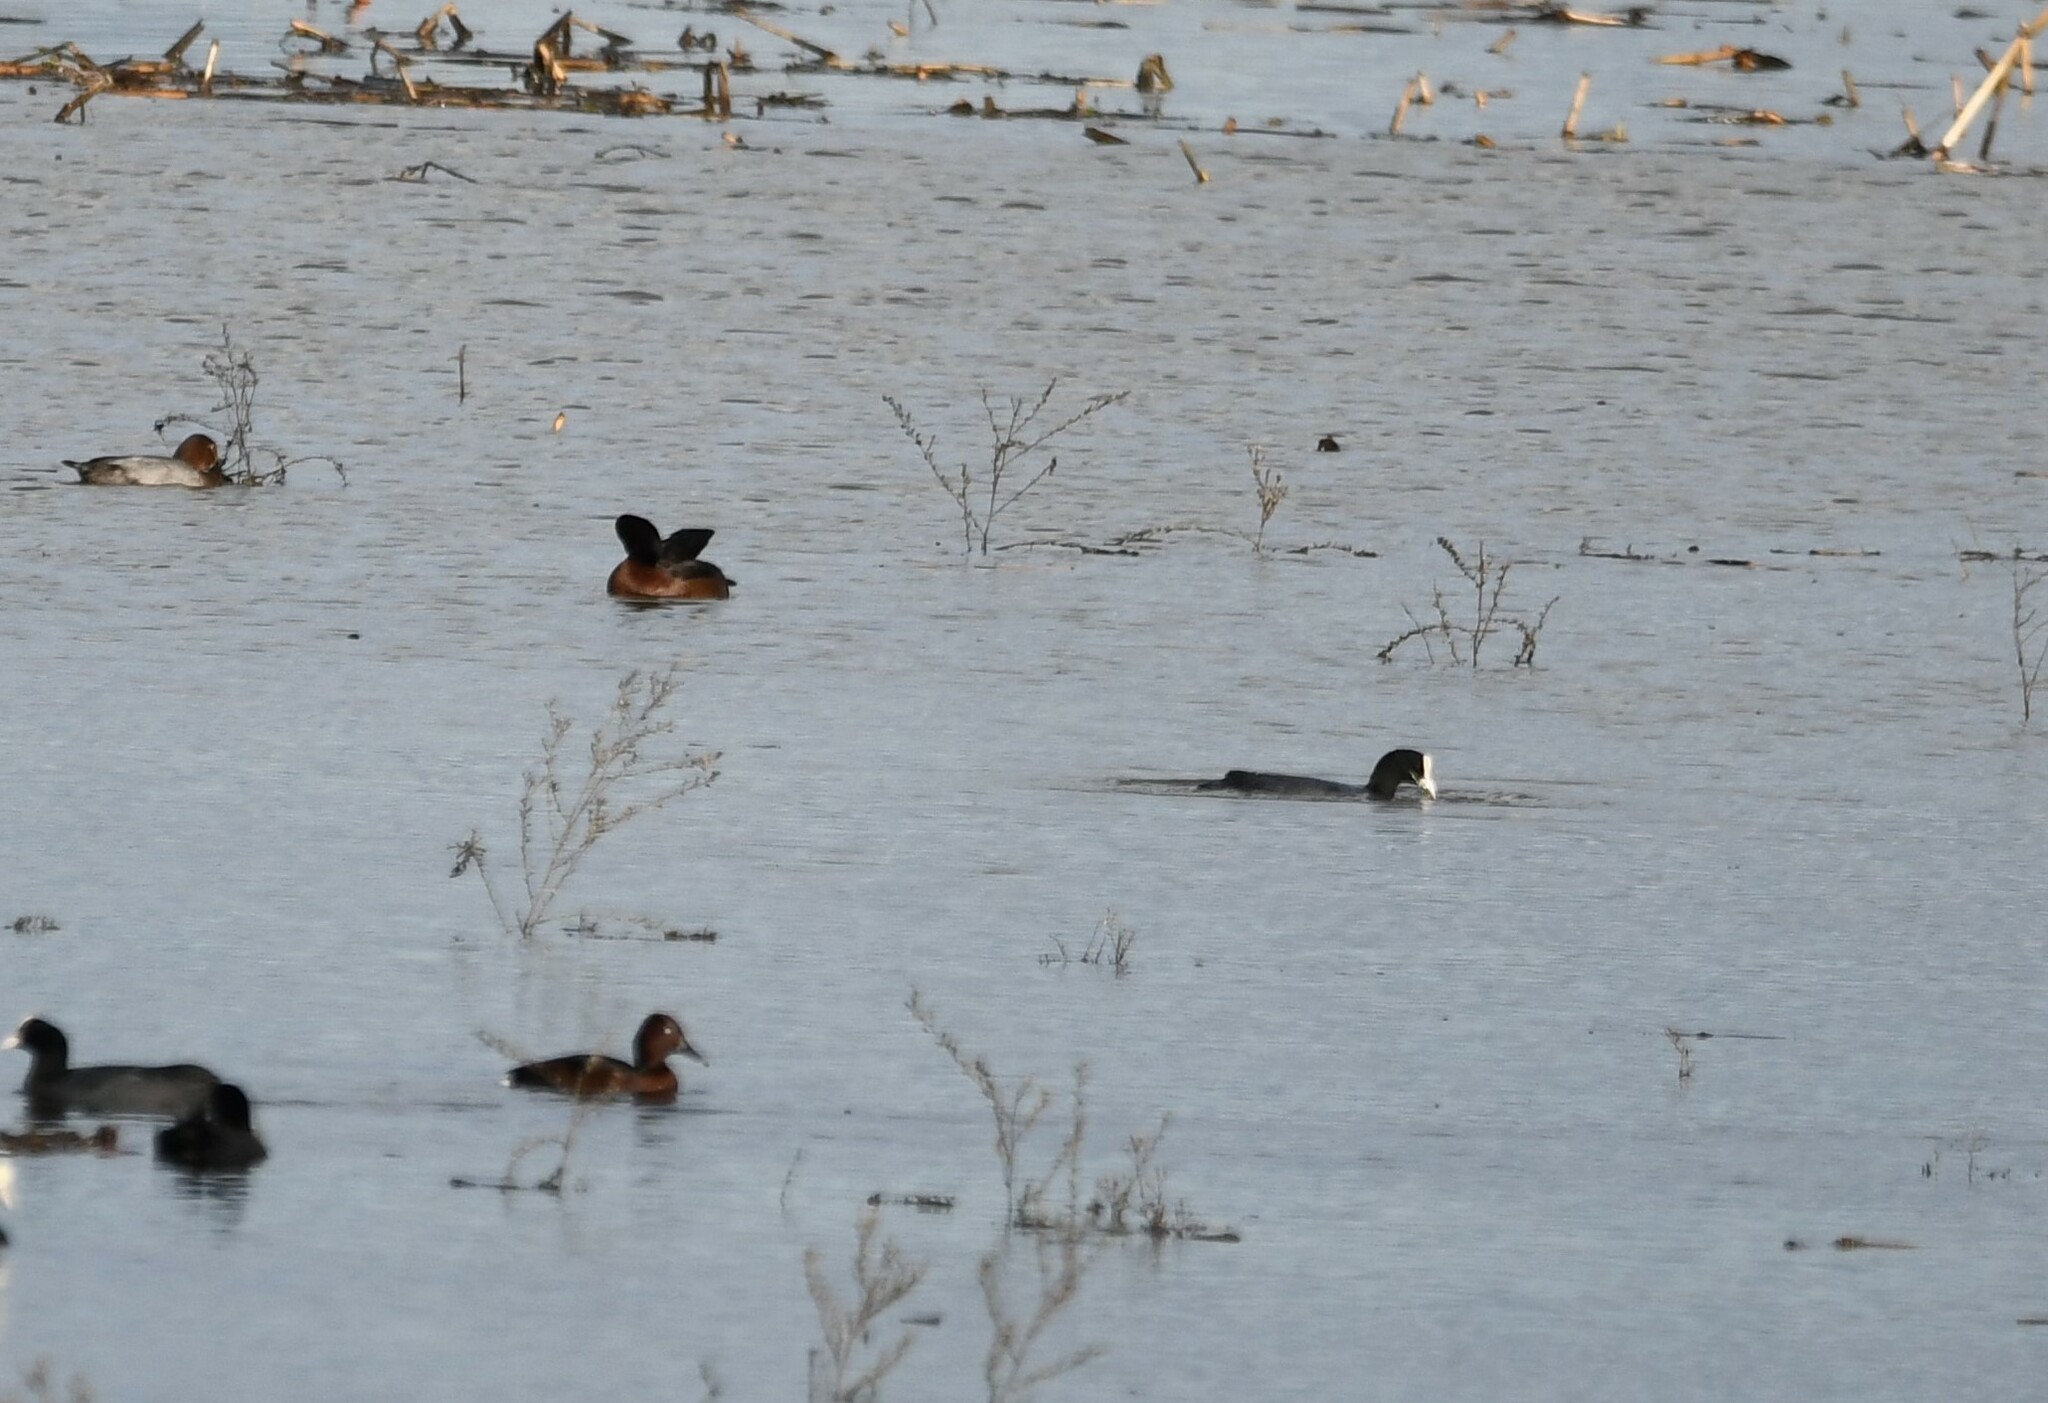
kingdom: Animalia
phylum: Chordata
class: Aves
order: Anseriformes
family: Anatidae
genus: Aythya
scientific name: Aythya nyroca
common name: Ferruginous duck
